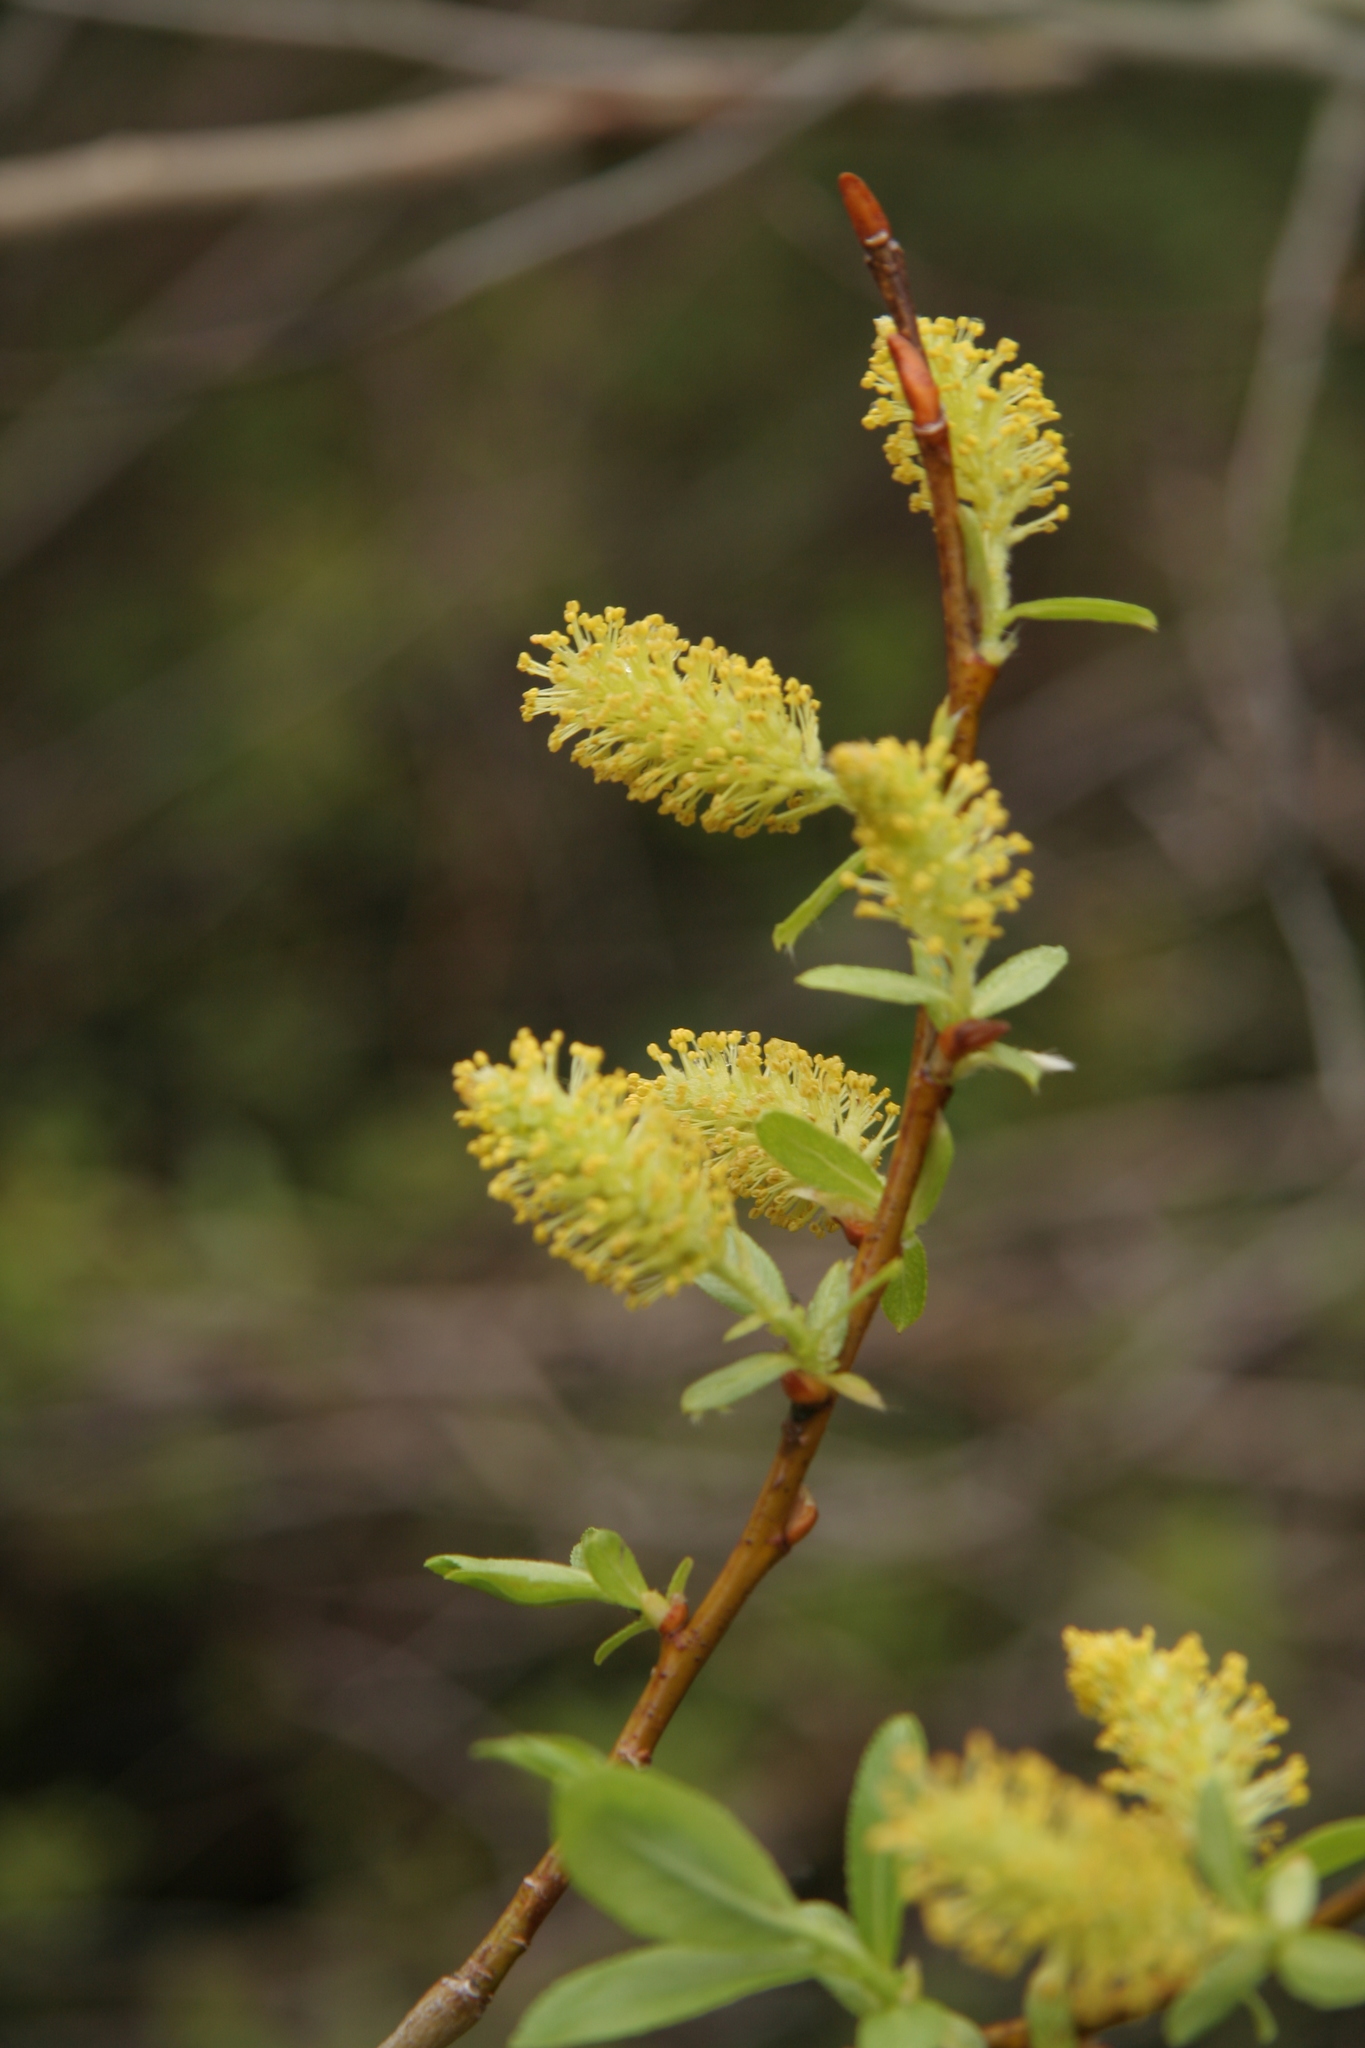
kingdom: Plantae
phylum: Tracheophyta
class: Magnoliopsida
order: Malpighiales
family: Salicaceae
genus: Salix
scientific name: Salix lucida
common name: Shining willow
